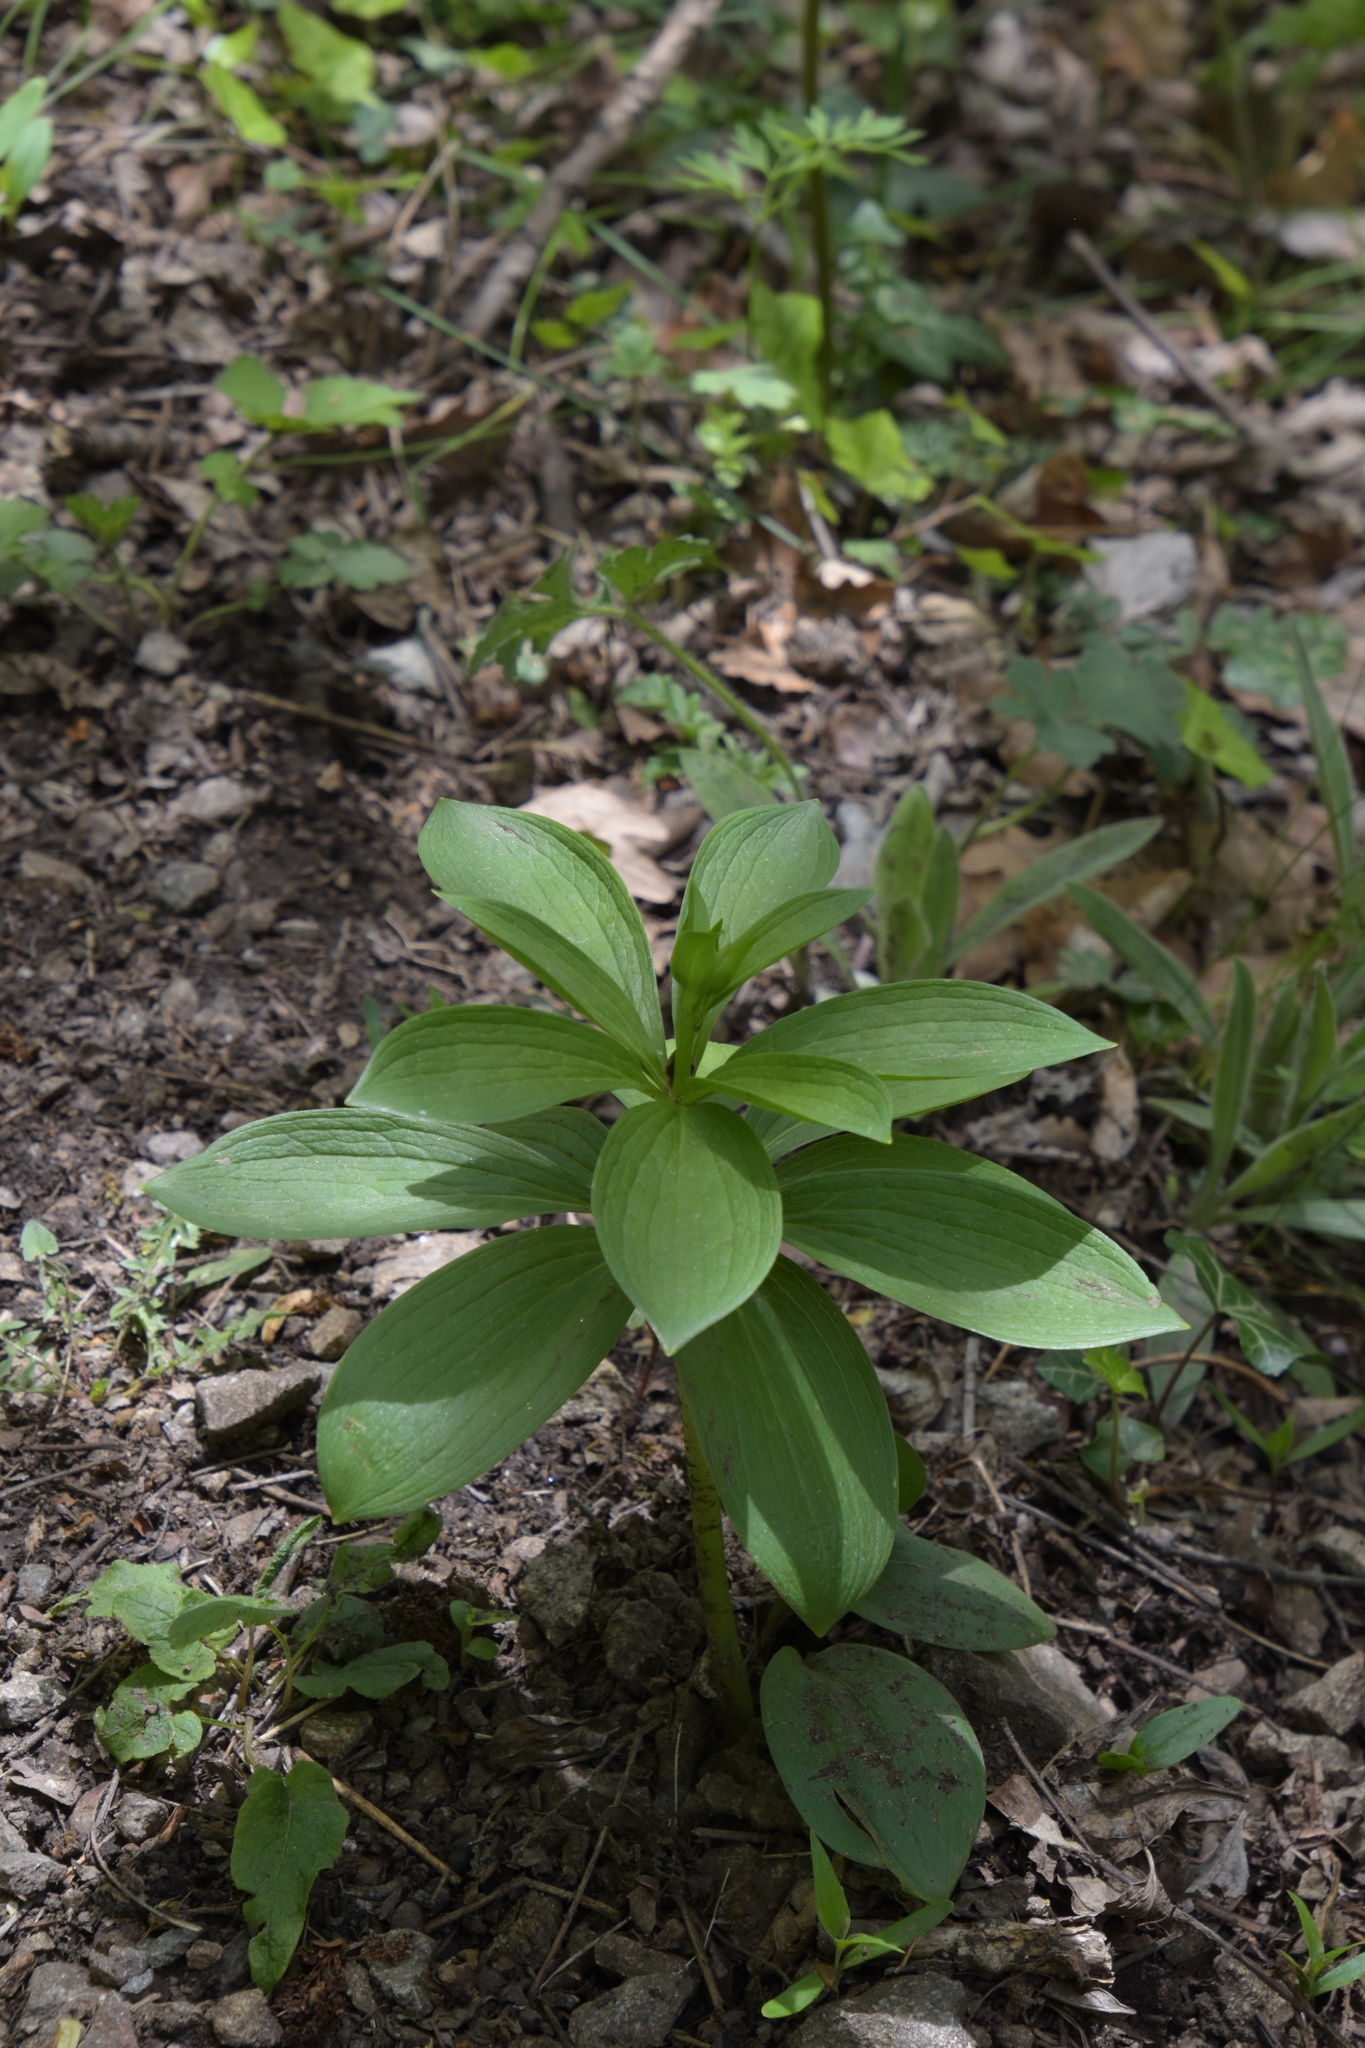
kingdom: Plantae
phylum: Tracheophyta
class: Liliopsida
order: Liliales
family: Liliaceae
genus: Lilium
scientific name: Lilium martagon
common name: Martagon lily
